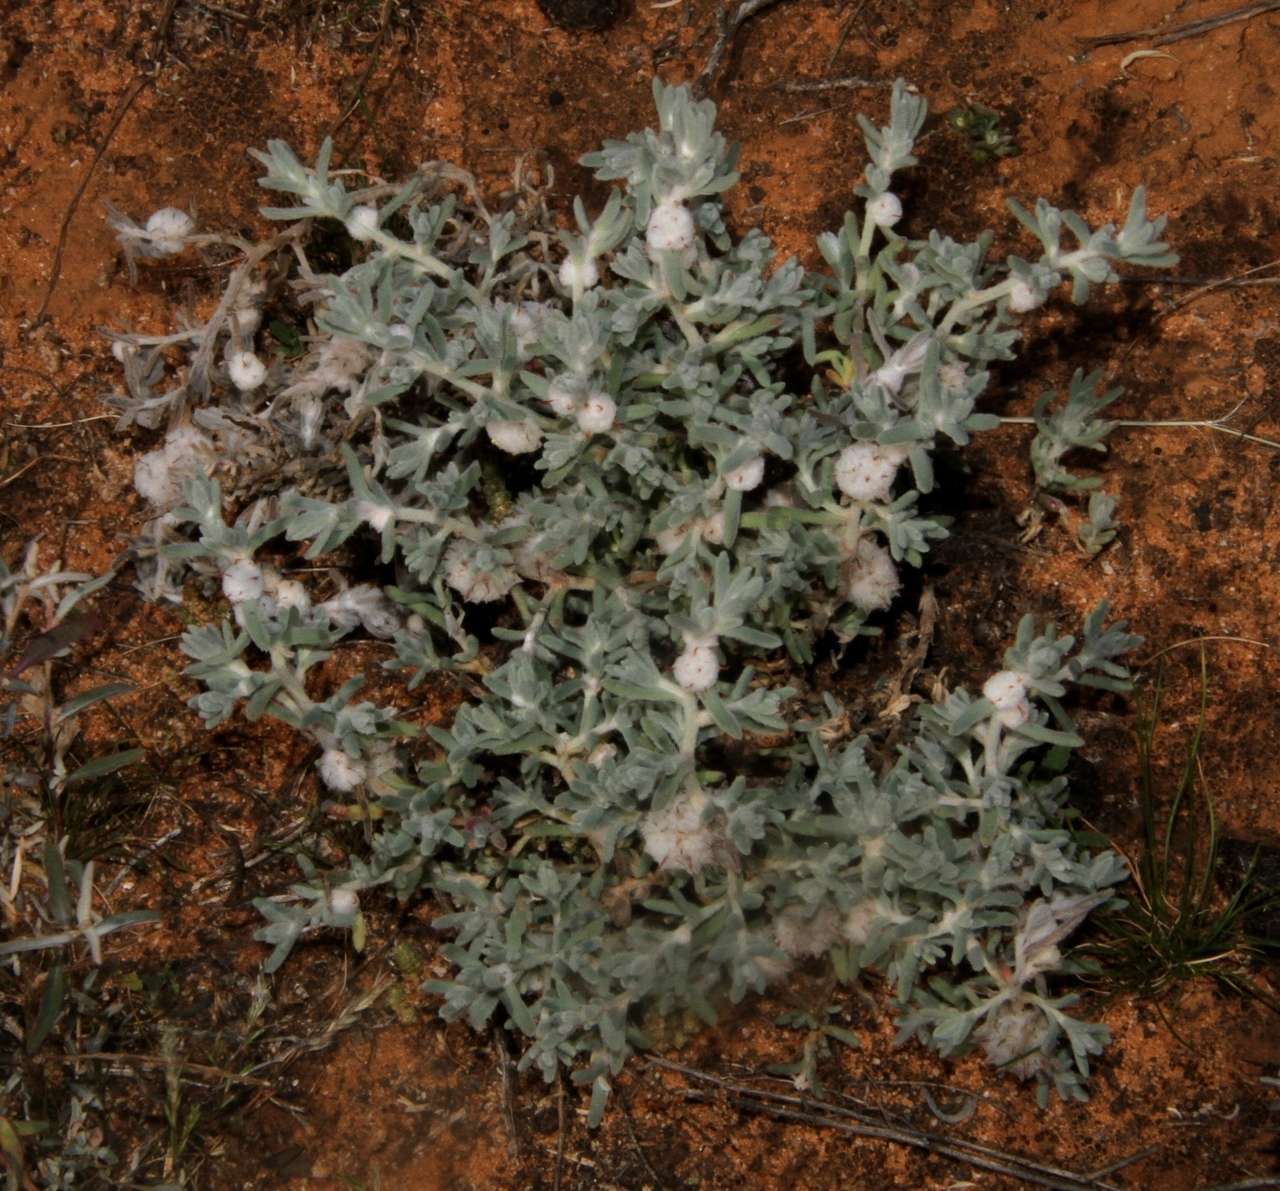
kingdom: Plantae
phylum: Tracheophyta
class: Magnoliopsida
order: Caryophyllales
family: Amaranthaceae
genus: Dissocarpus
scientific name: Dissocarpus paradoxus
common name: Bur-saltbush
